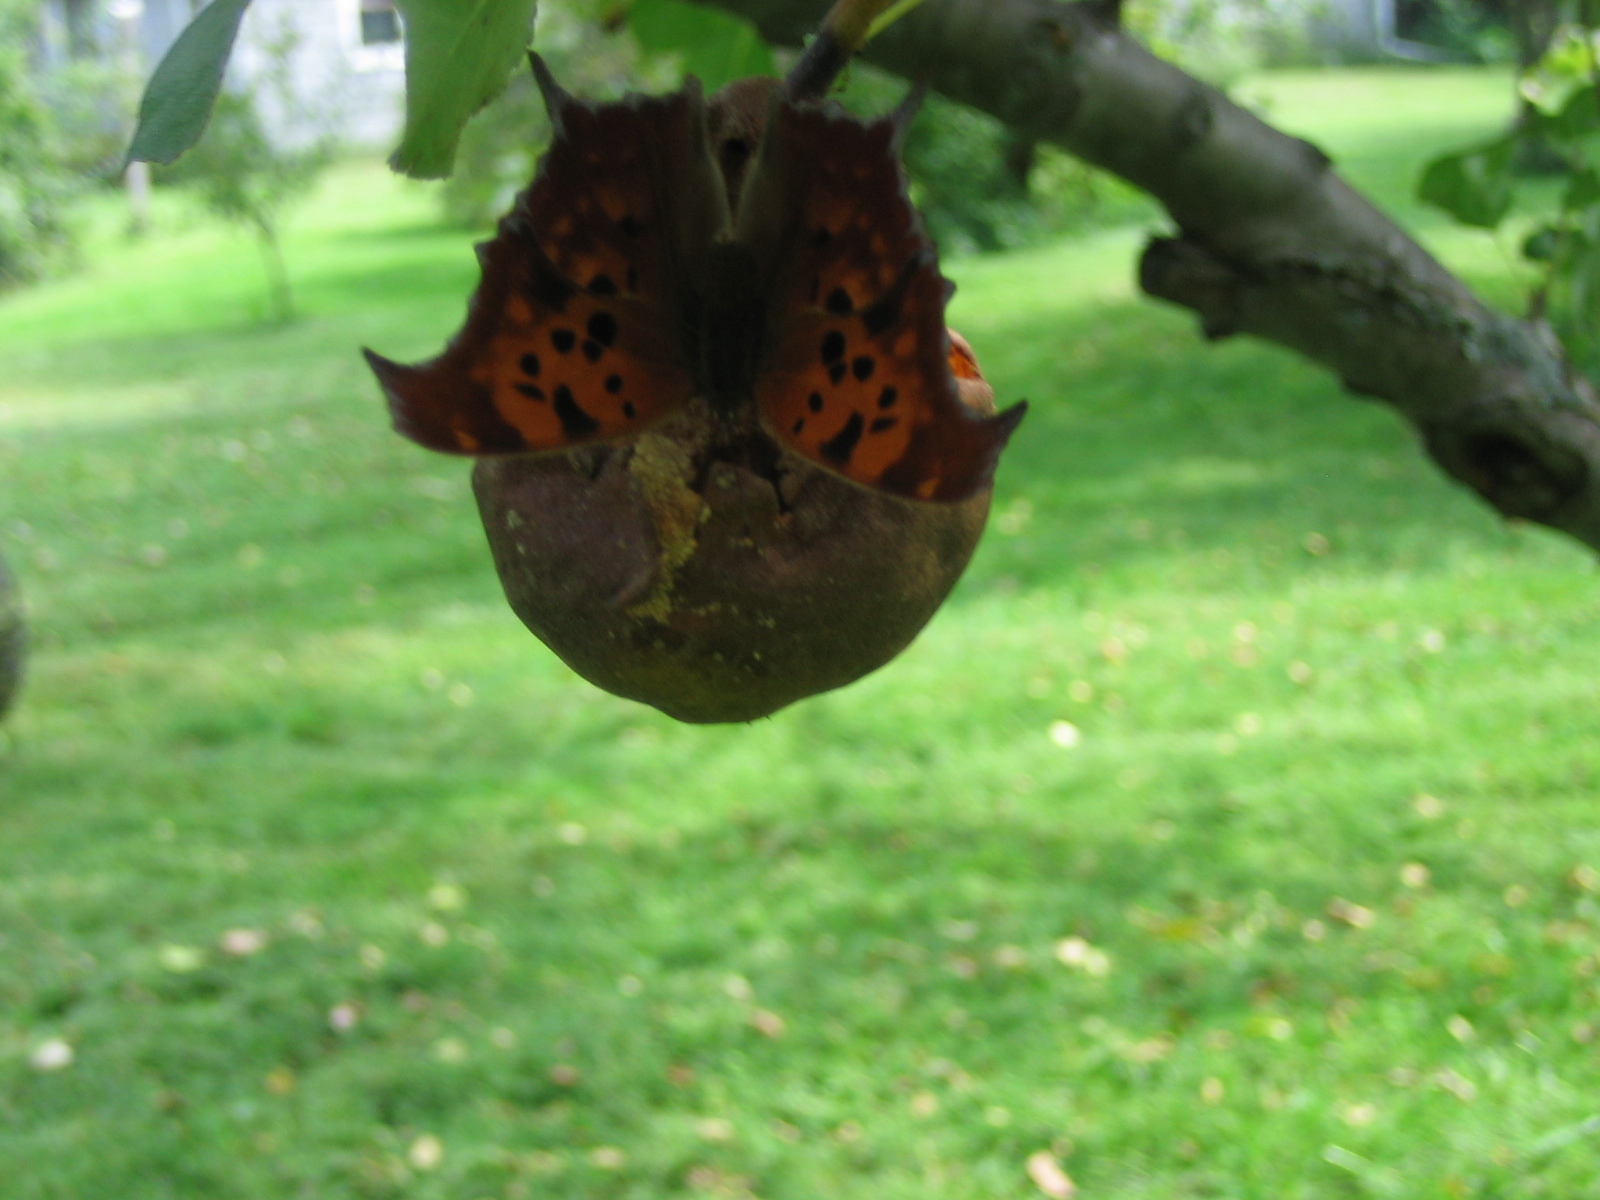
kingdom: Animalia
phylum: Arthropoda
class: Insecta
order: Lepidoptera
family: Nymphalidae
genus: Polygonia
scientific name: Polygonia interrogationis
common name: Question mark
